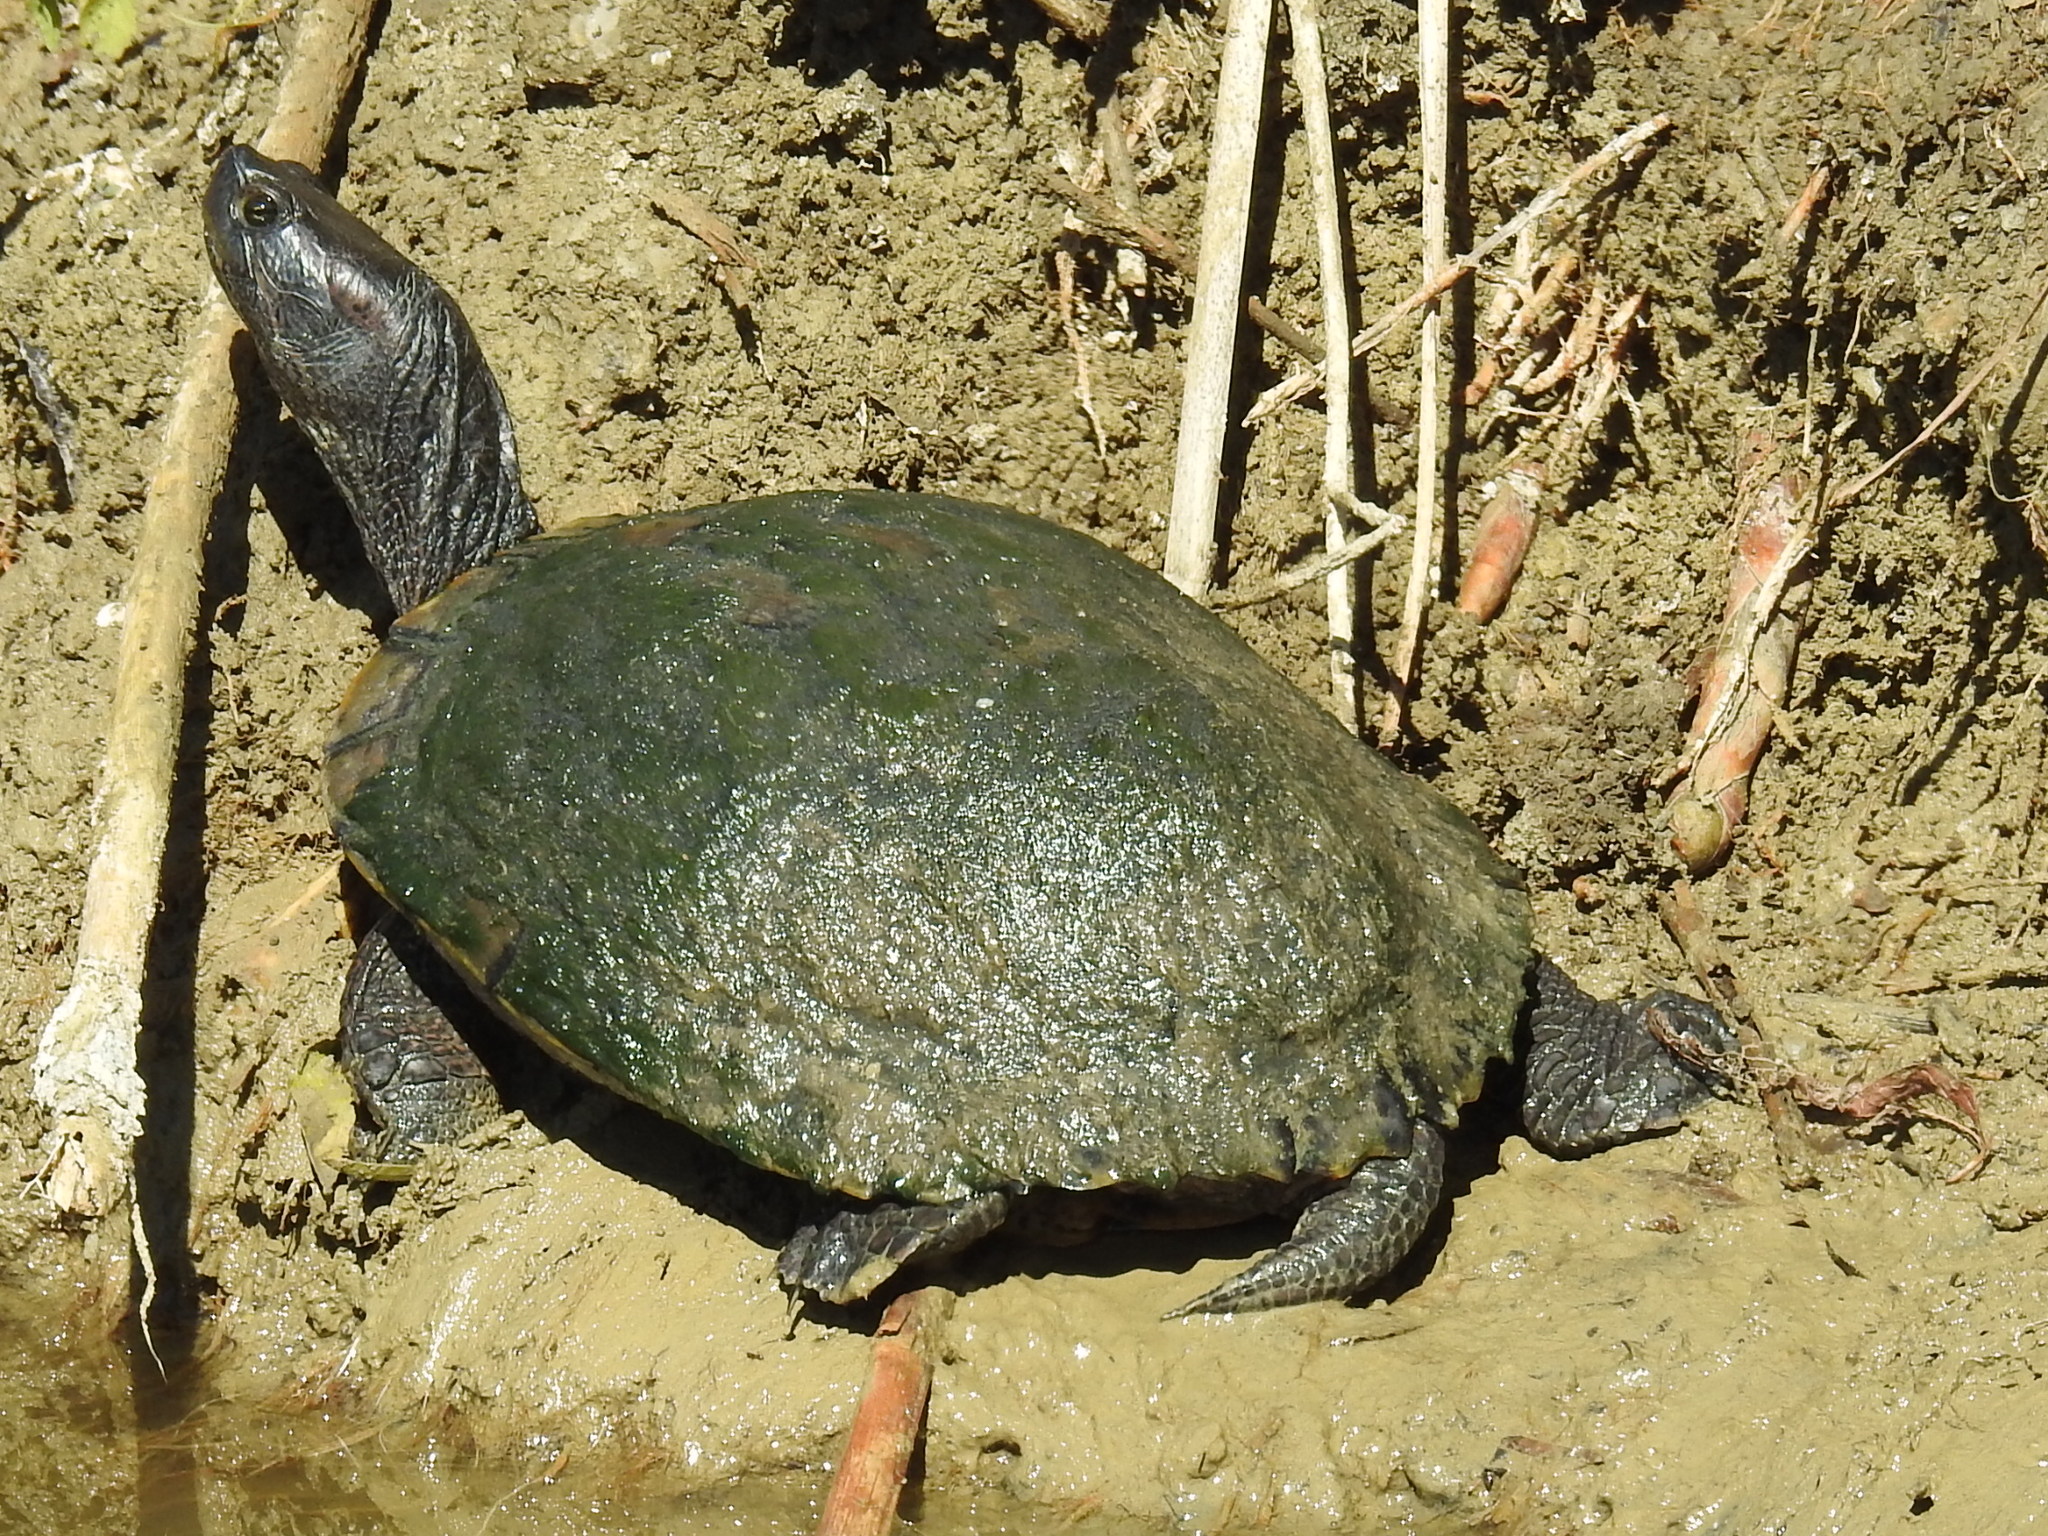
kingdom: Animalia
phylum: Chordata
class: Testudines
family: Emydidae
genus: Trachemys
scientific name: Trachemys scripta
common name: Slider
